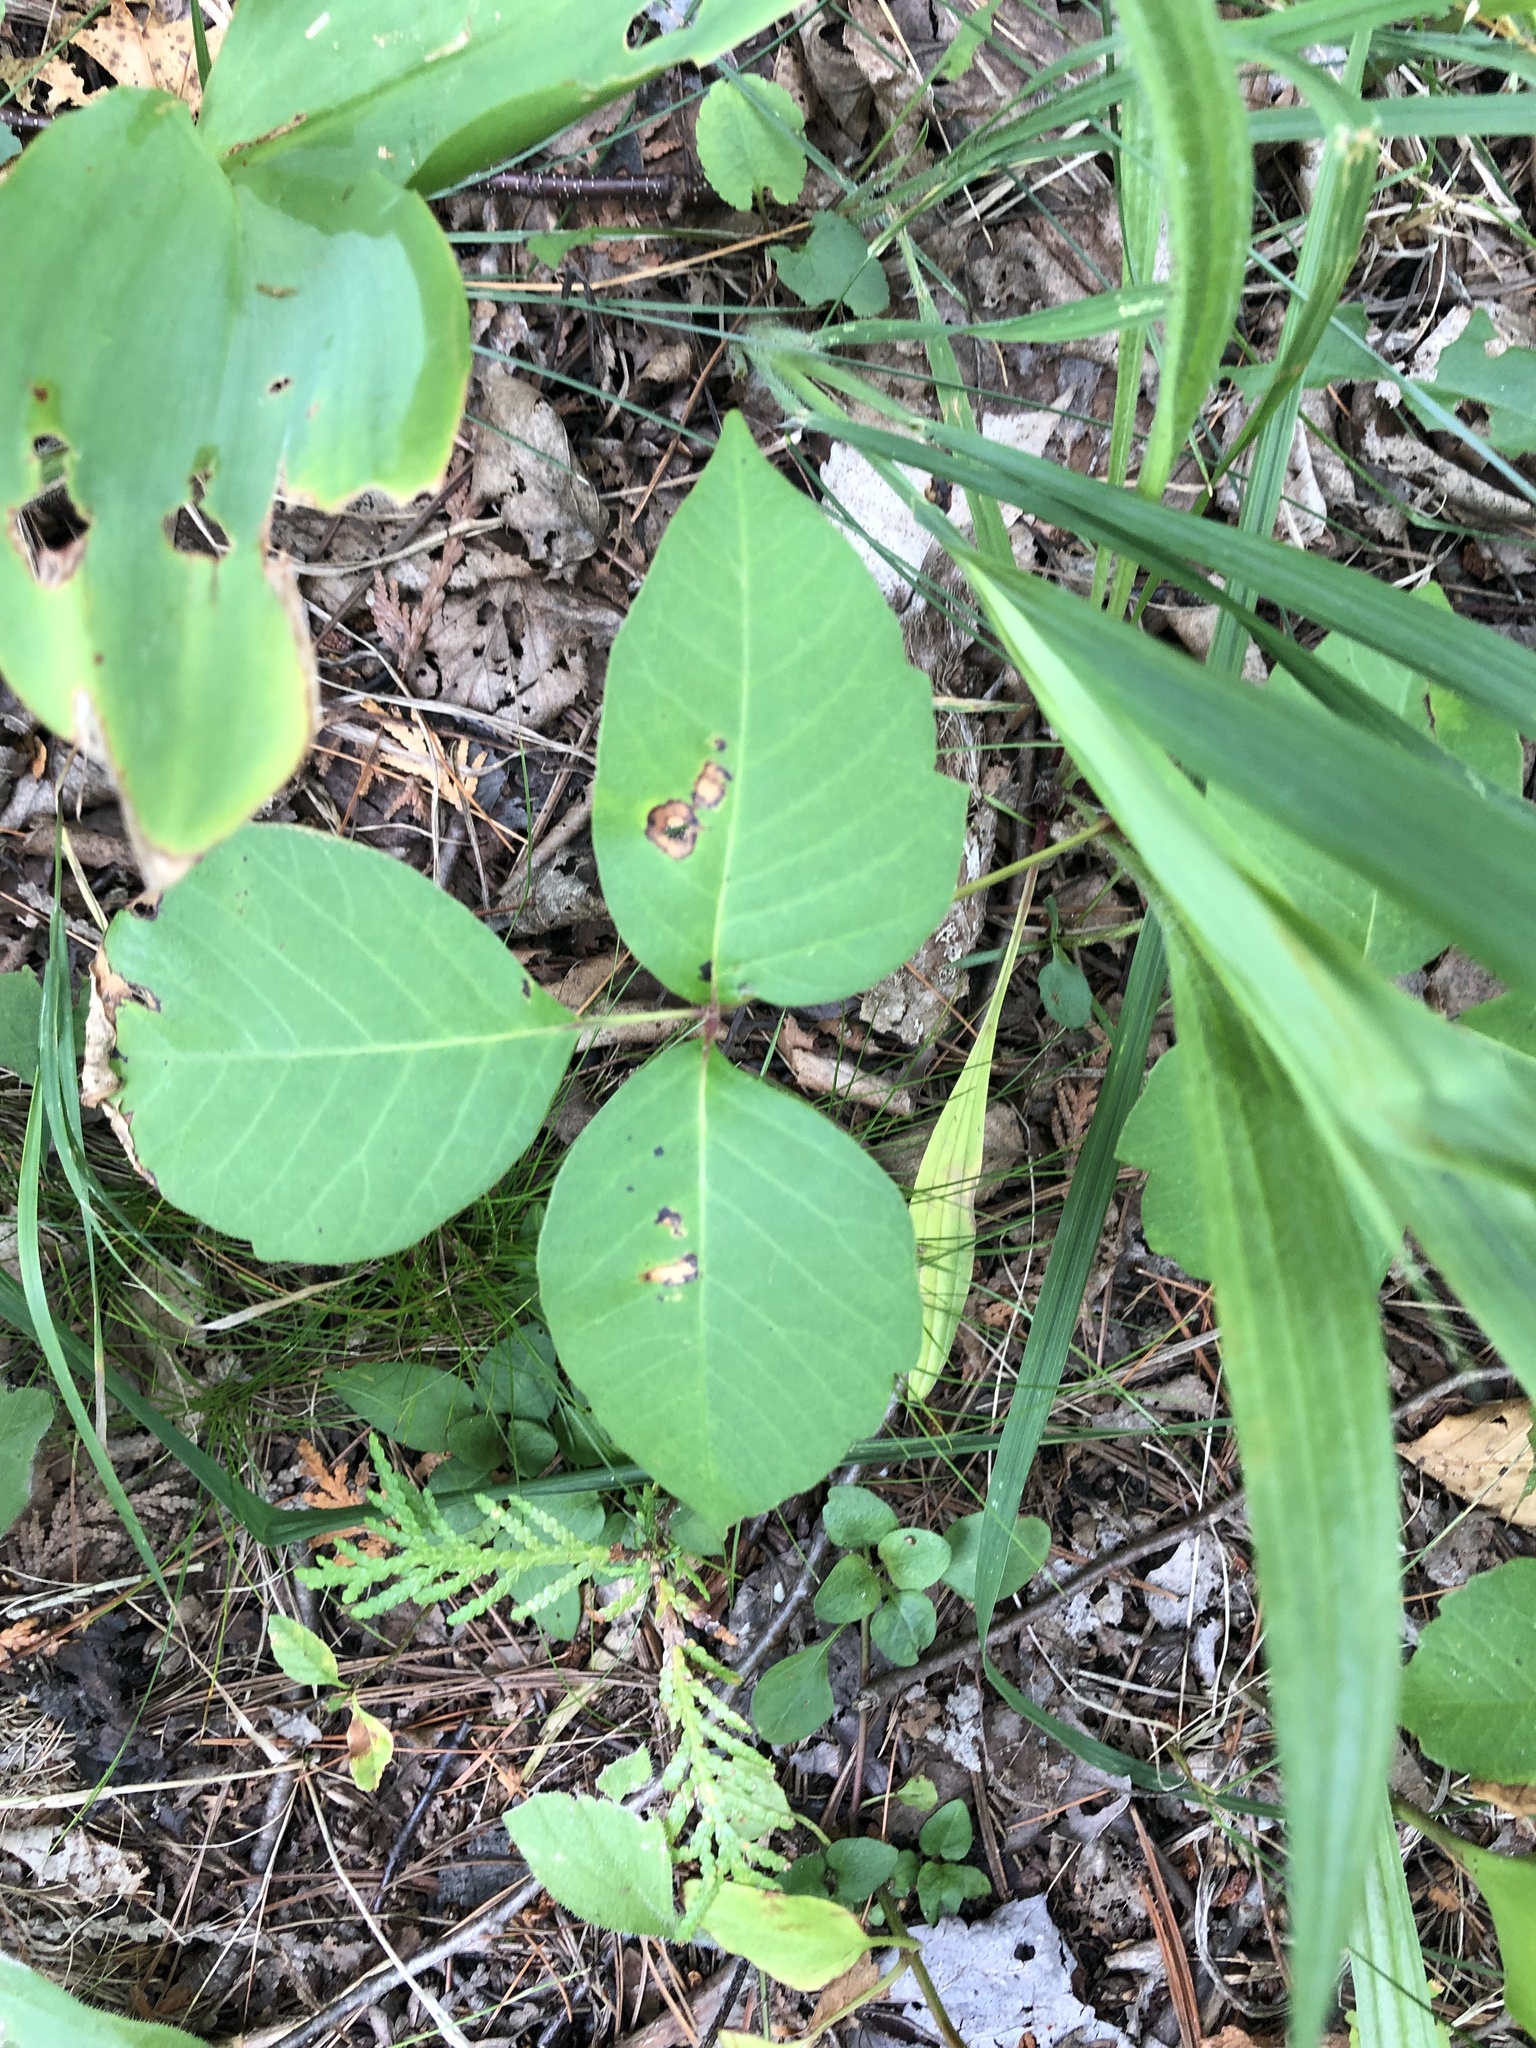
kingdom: Plantae
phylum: Tracheophyta
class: Magnoliopsida
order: Sapindales
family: Anacardiaceae
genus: Toxicodendron
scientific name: Toxicodendron rydbergii
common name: Rydberg's poison-ivy
